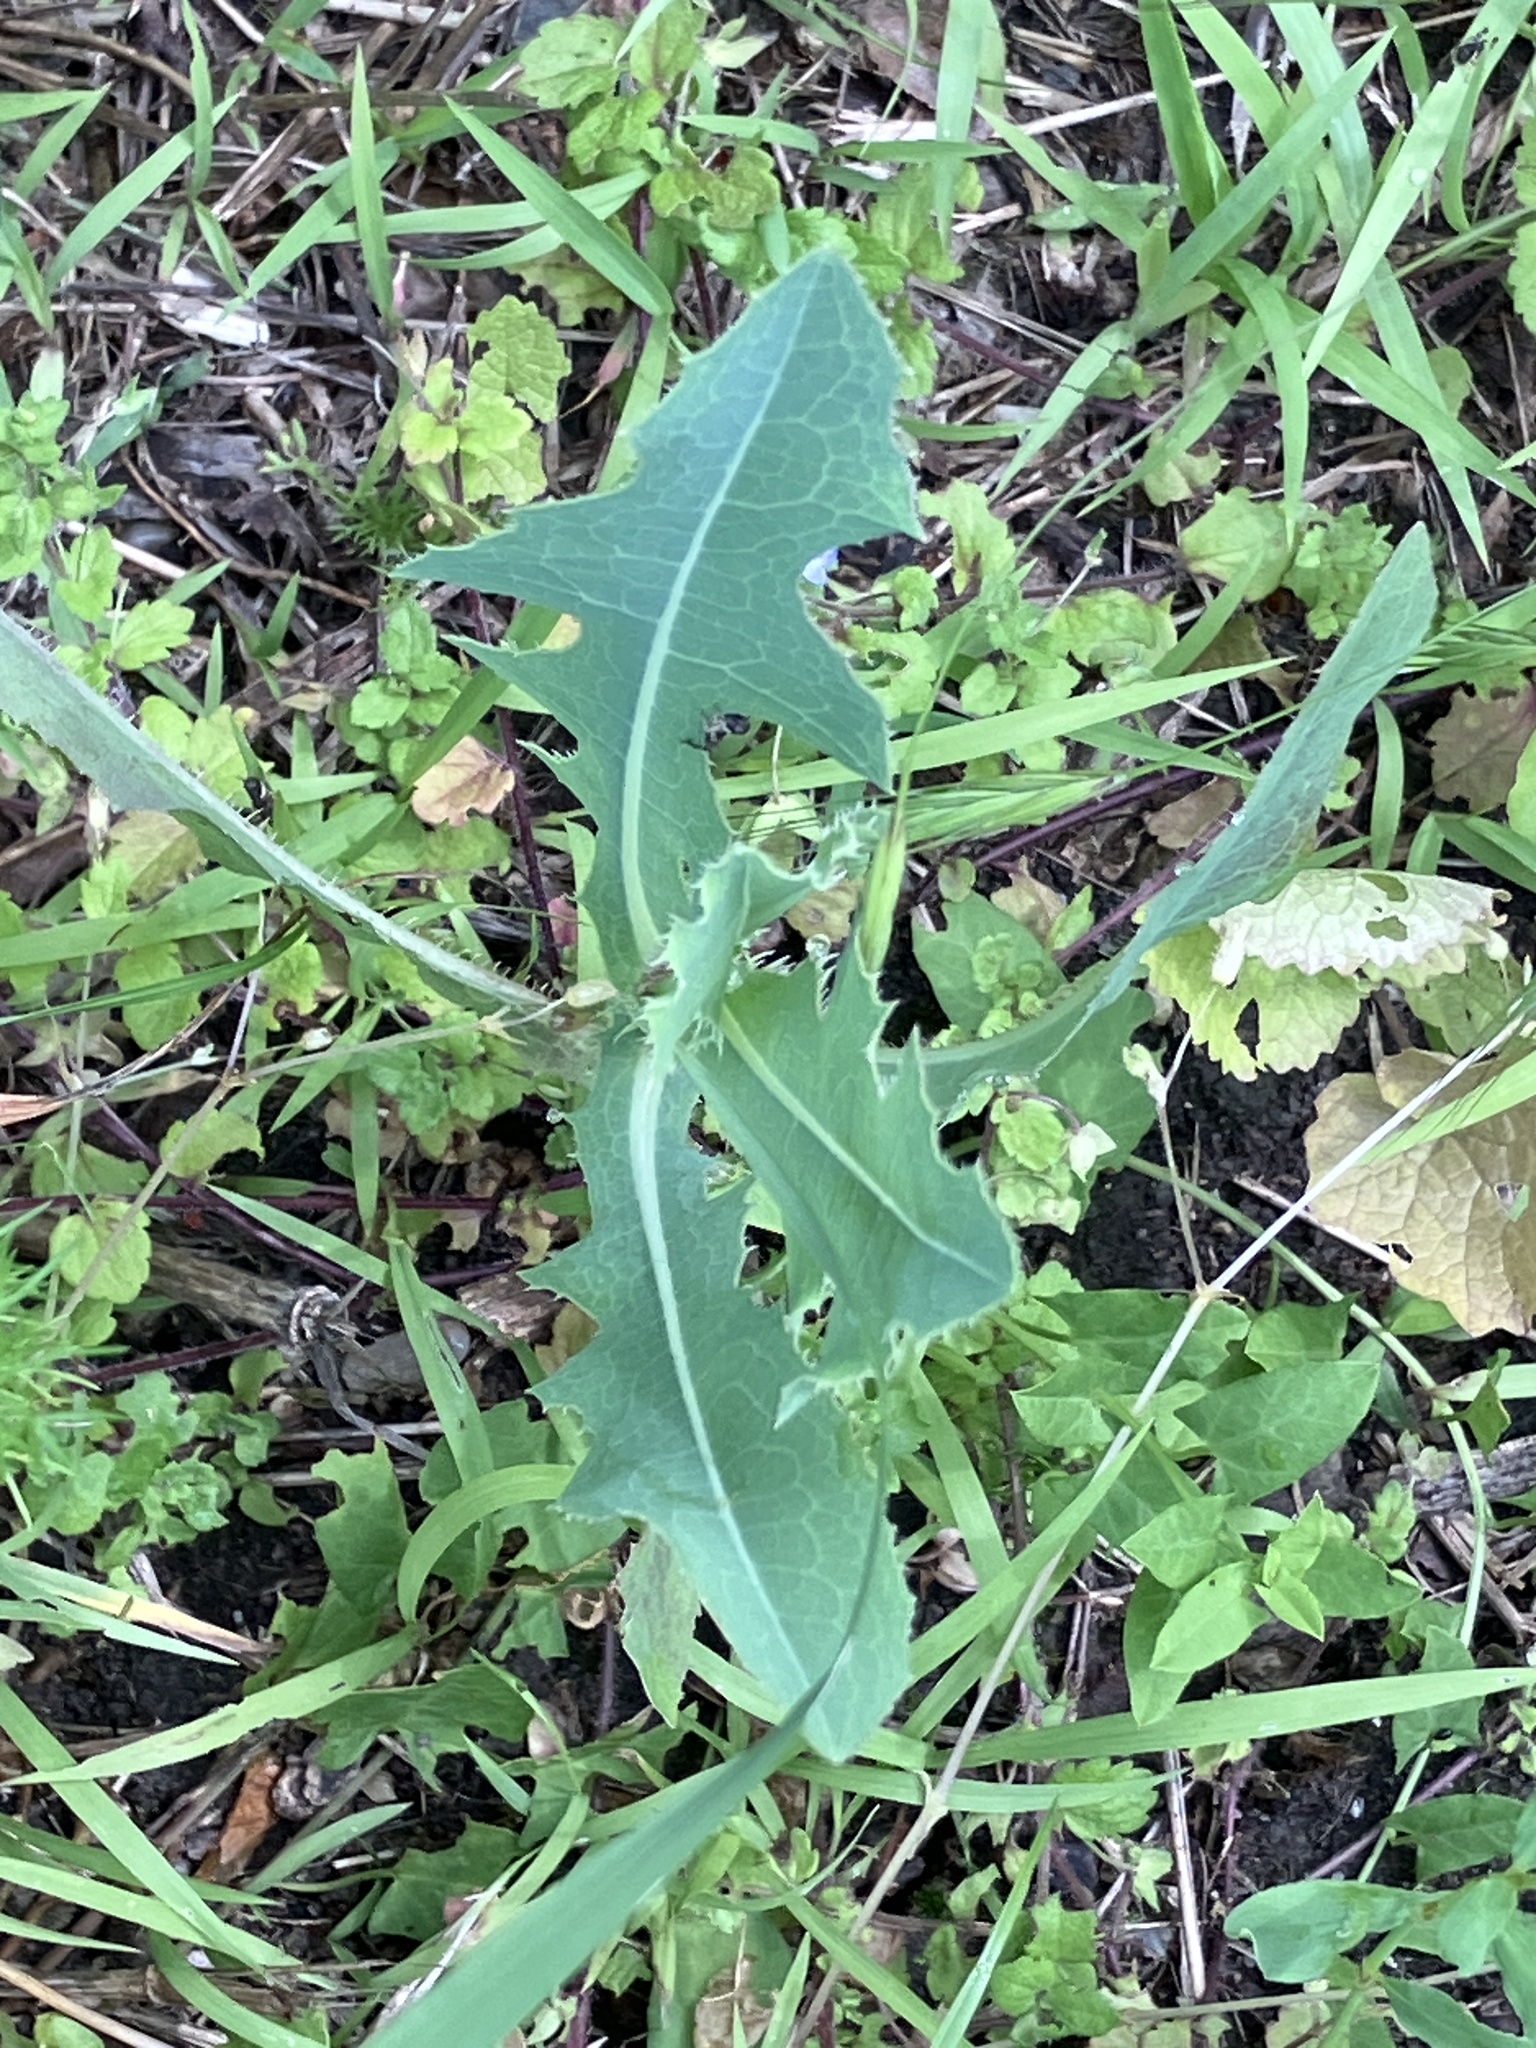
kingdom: Plantae
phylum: Tracheophyta
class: Magnoliopsida
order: Asterales
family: Asteraceae
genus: Lactuca
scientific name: Lactuca serriola
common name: Prickly lettuce
